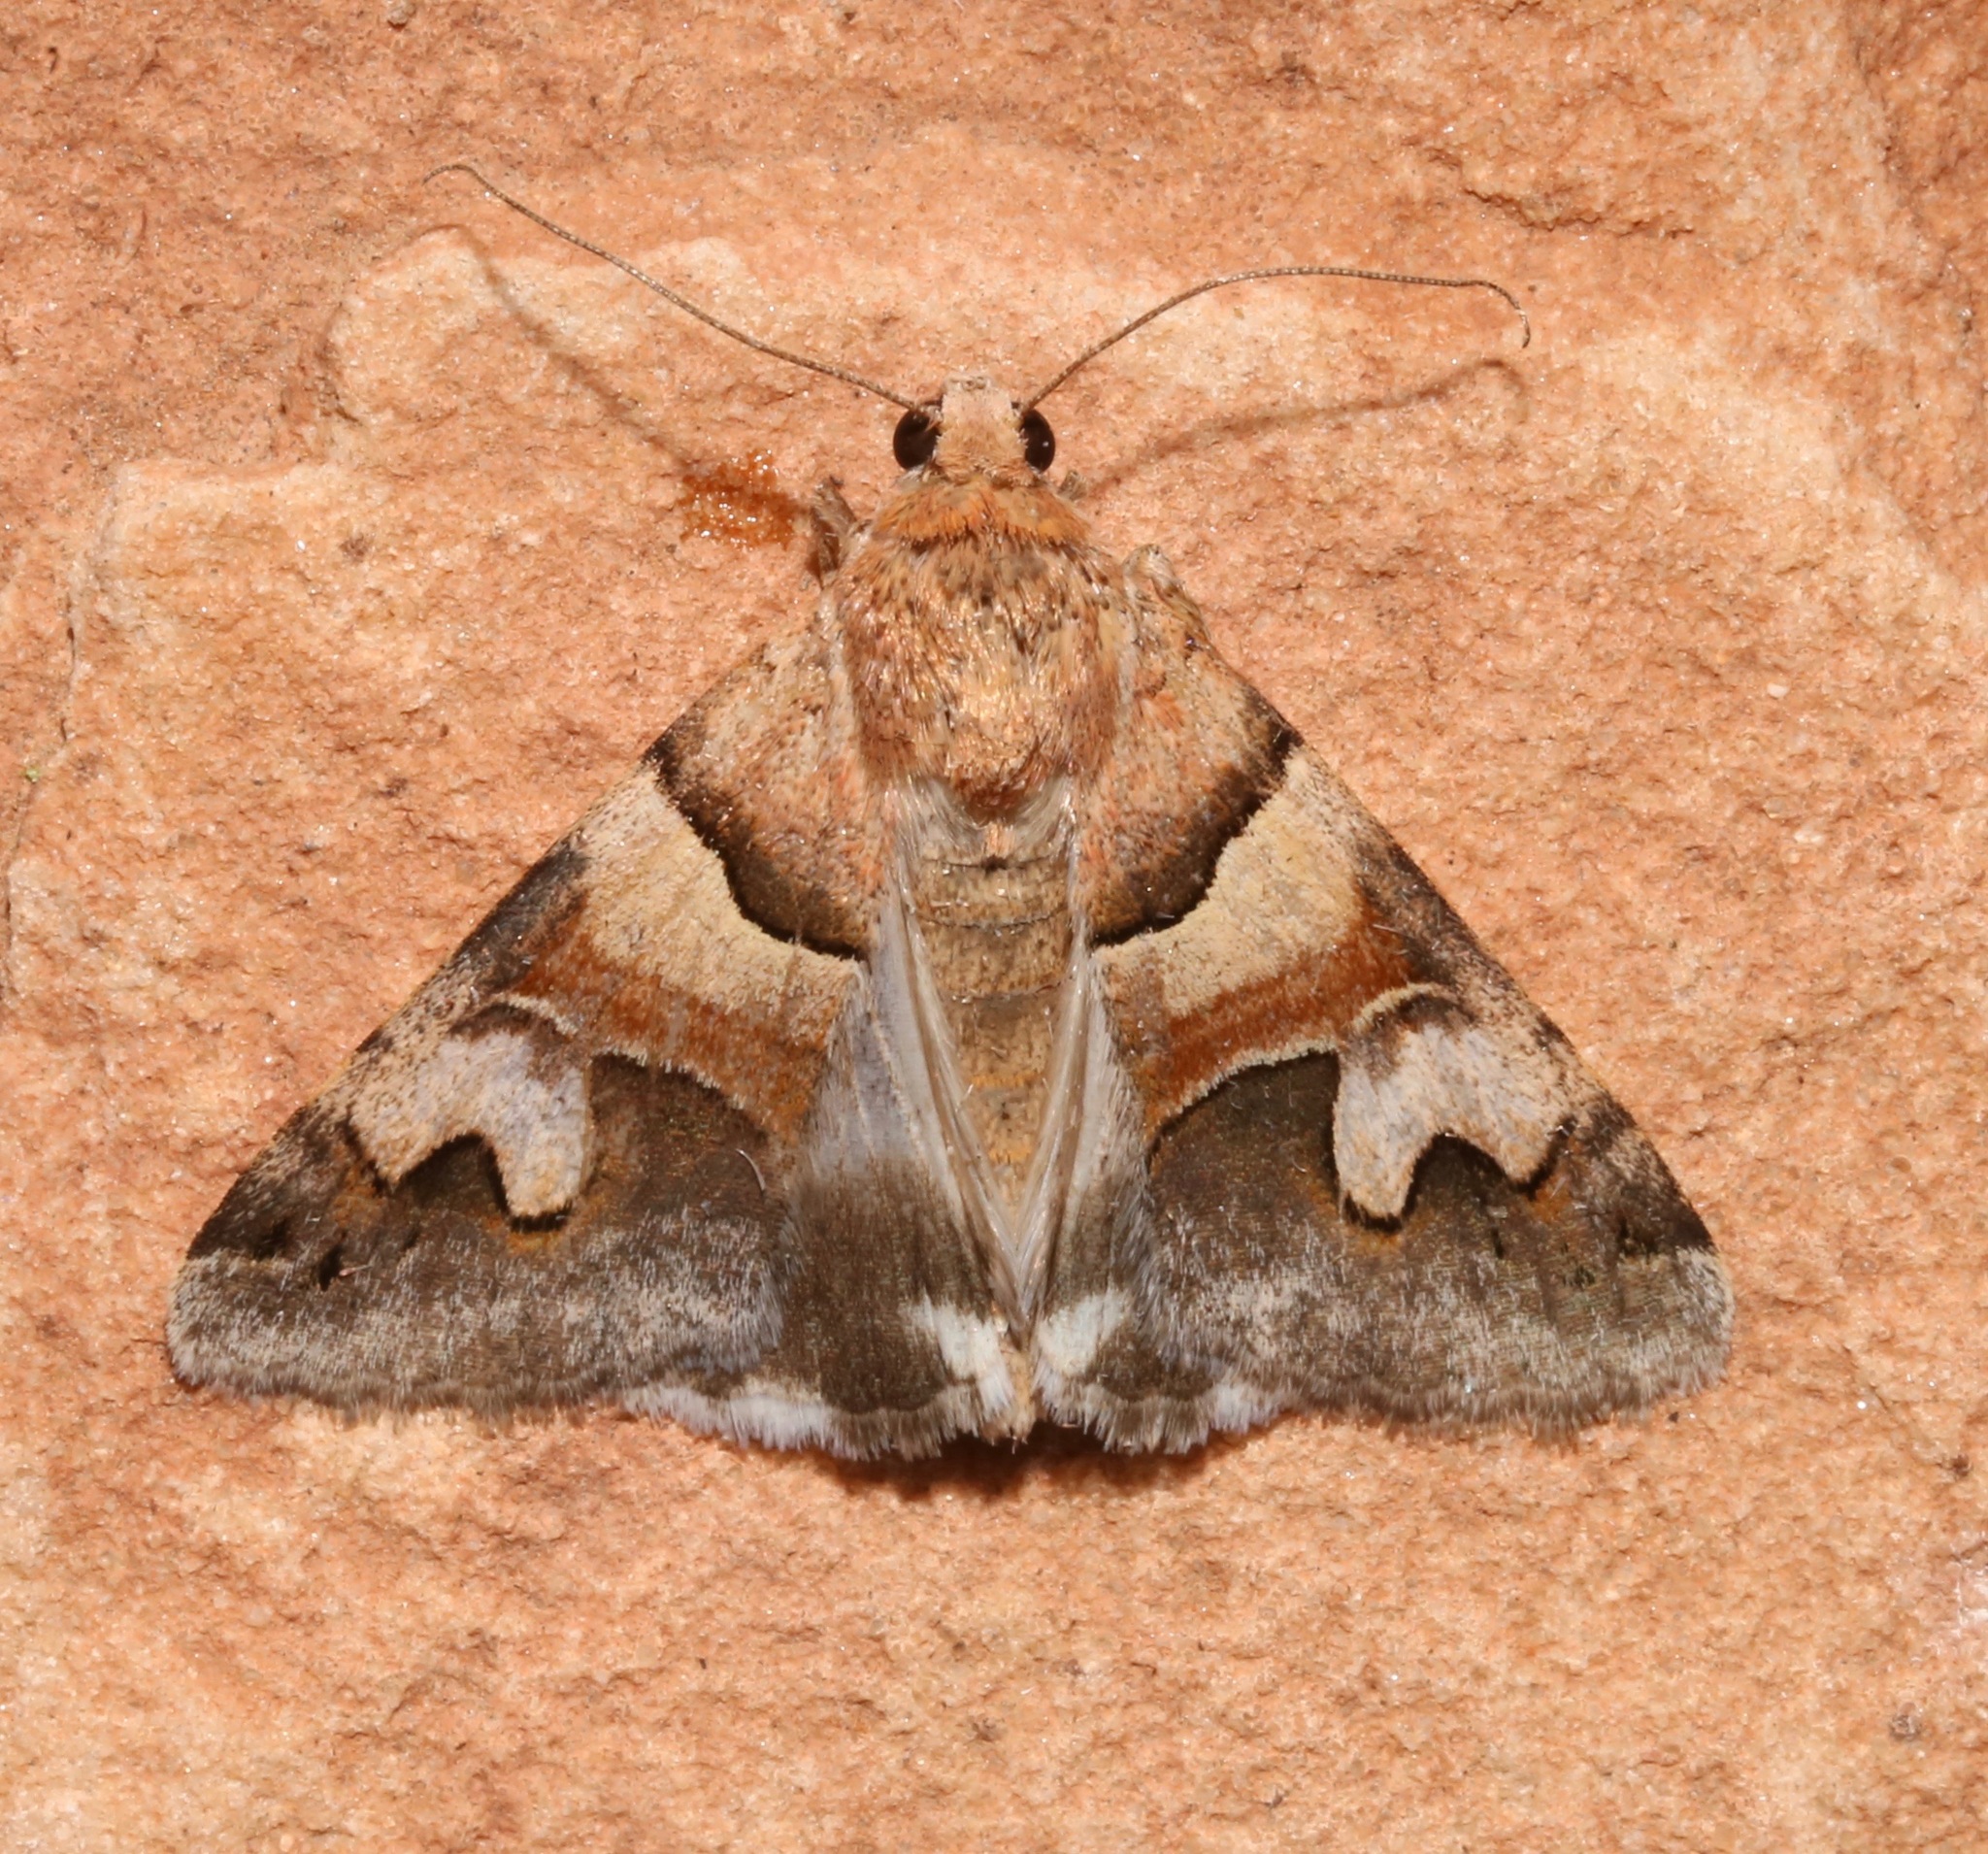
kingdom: Animalia
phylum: Arthropoda
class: Insecta
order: Lepidoptera
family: Erebidae
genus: Drasteria
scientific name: Drasteria pallescens
